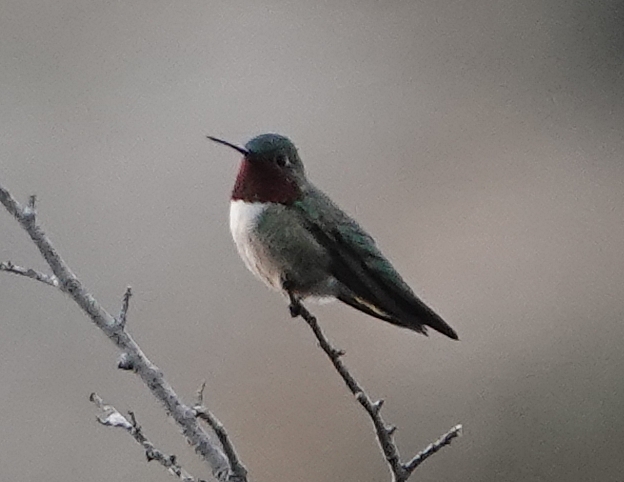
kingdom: Animalia
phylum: Chordata
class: Aves
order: Apodiformes
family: Trochilidae
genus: Selasphorus
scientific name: Selasphorus platycercus
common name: Broad-tailed hummingbird
